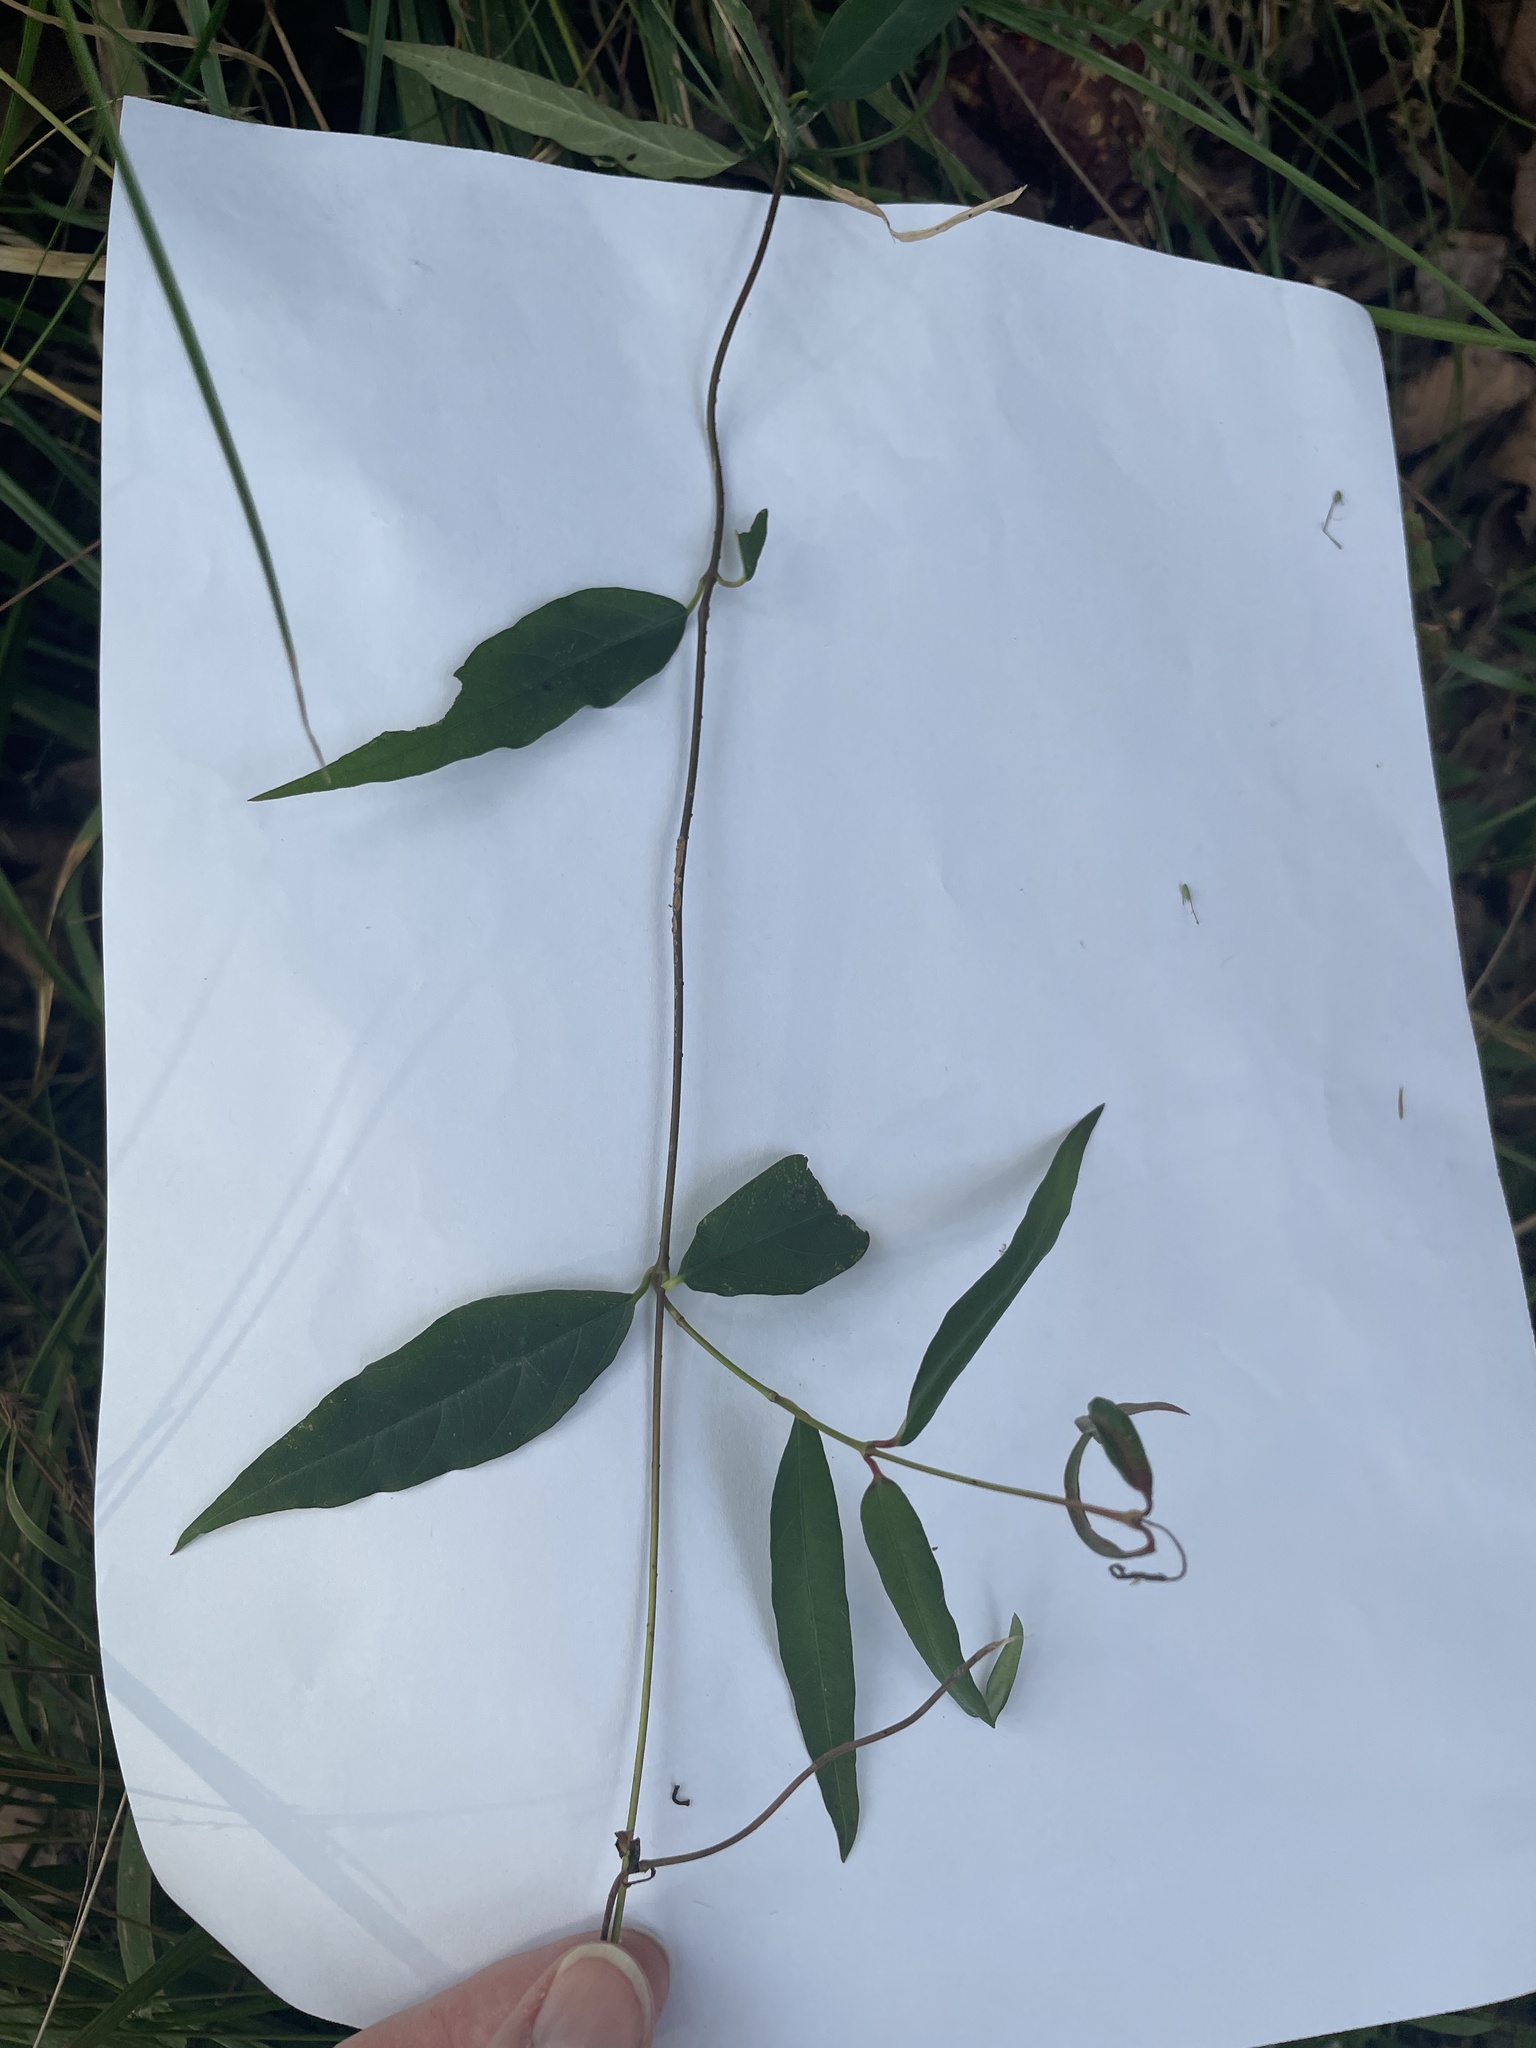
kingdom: Plantae
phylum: Tracheophyta
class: Magnoliopsida
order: Gentianales
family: Gelsemiaceae
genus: Gelsemium
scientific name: Gelsemium sempervirens
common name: Carolina-jasmine
